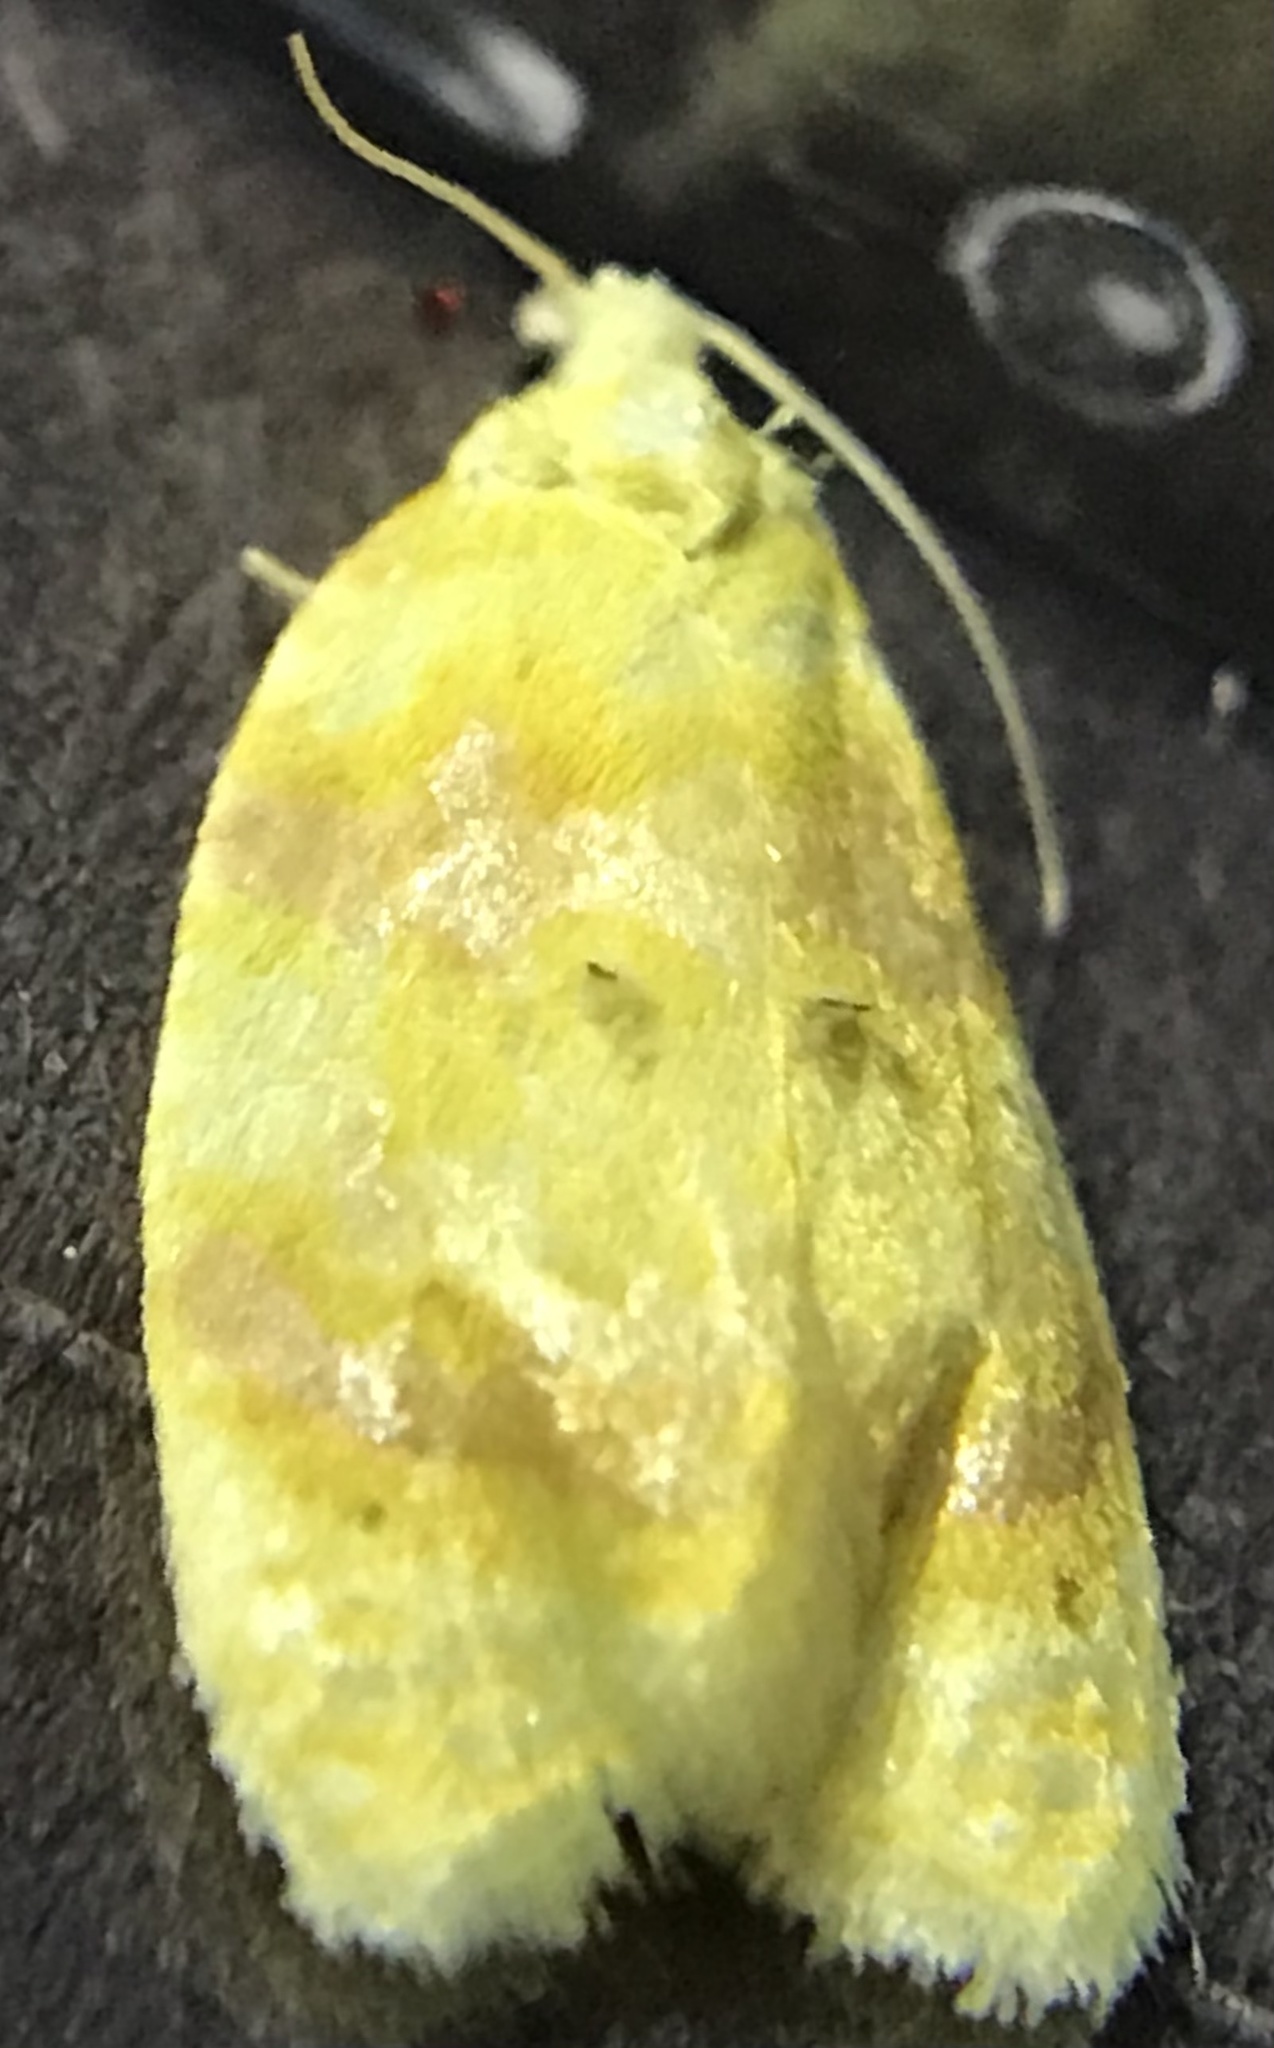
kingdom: Animalia
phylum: Arthropoda
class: Insecta
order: Lepidoptera
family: Tortricidae
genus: Acleris
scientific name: Acleris semipurpurana
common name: Oak leaftier moth
